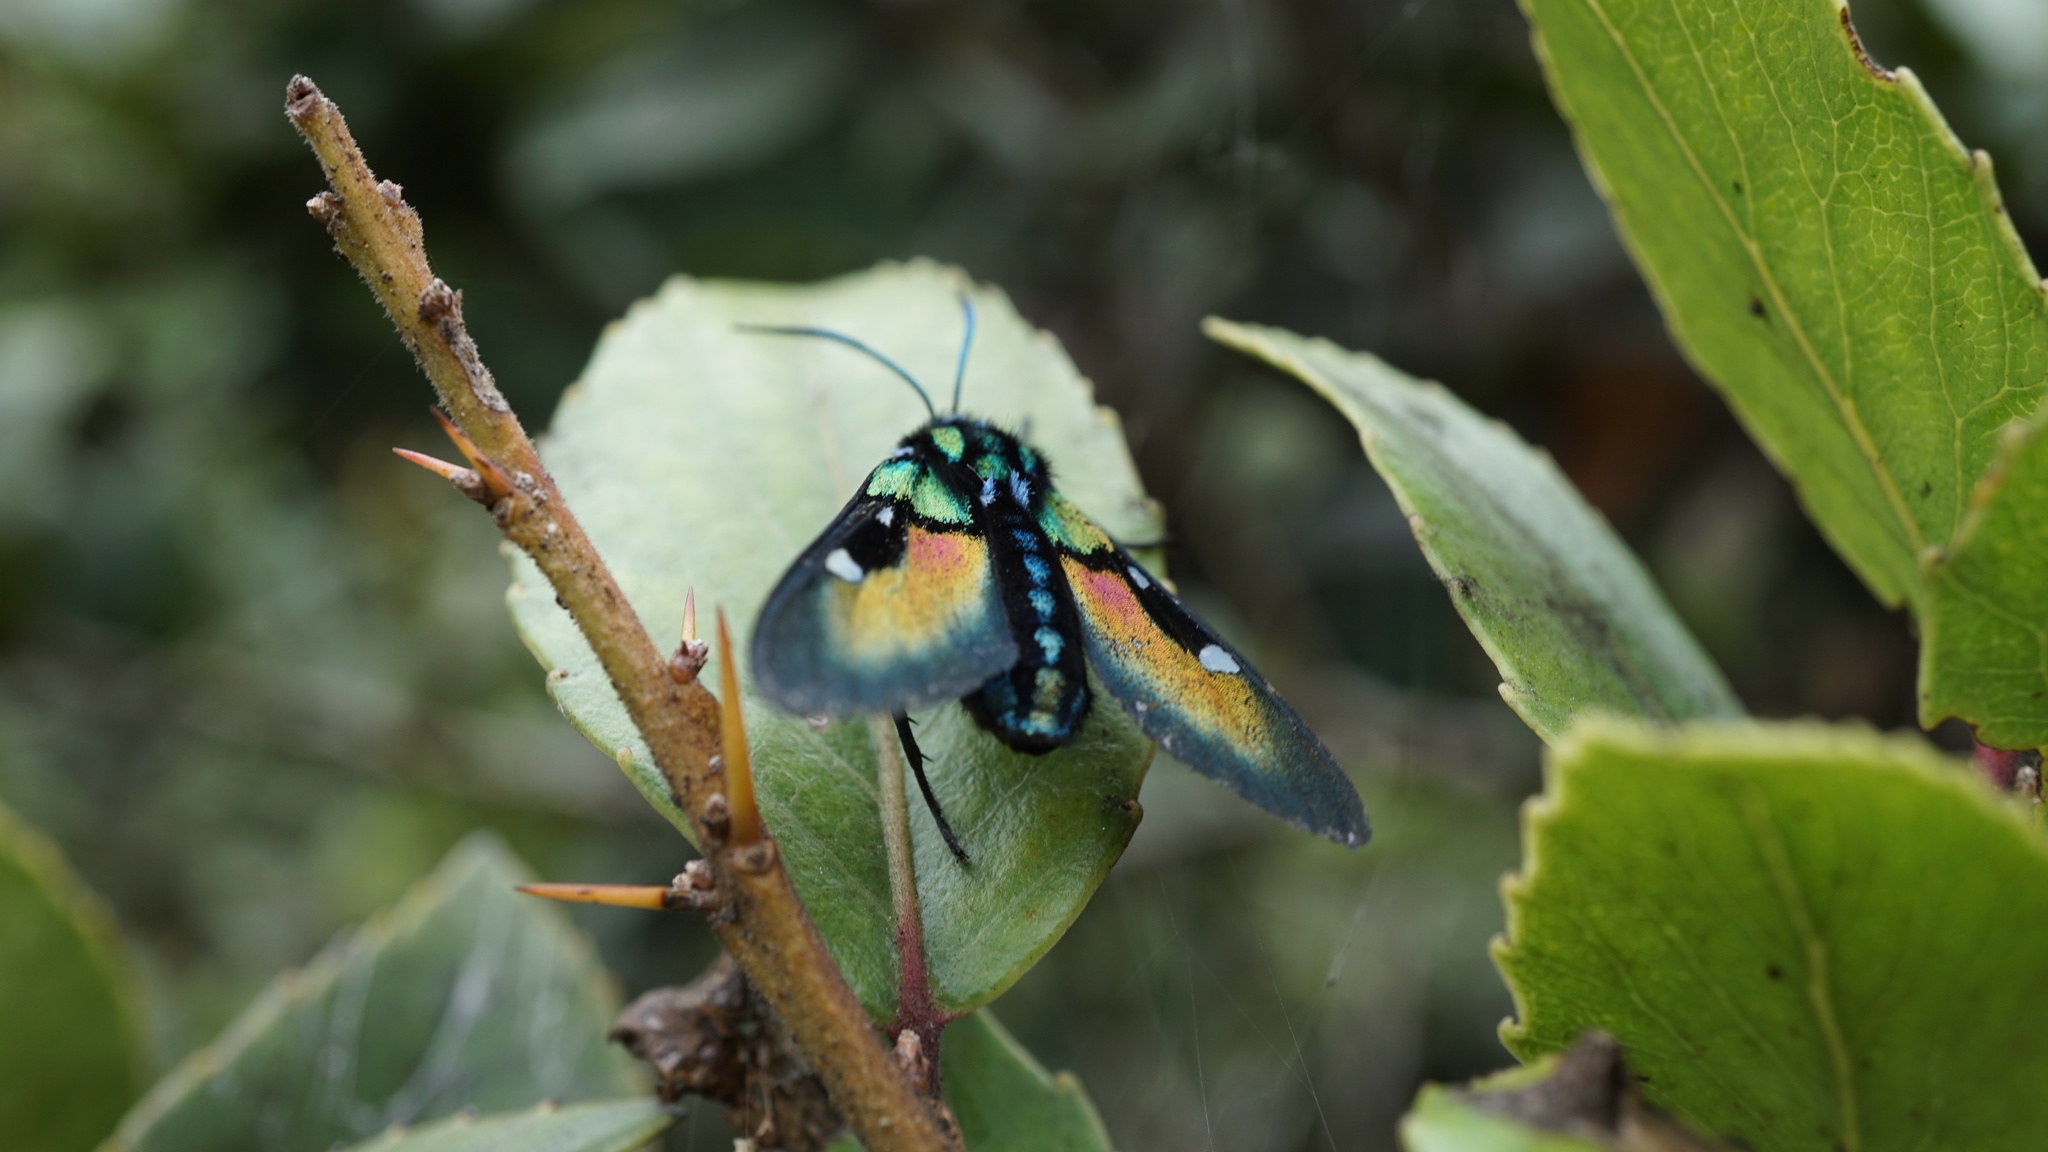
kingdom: Animalia
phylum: Arthropoda
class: Insecta
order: Lepidoptera
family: Erebidae
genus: Chrysocale
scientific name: Chrysocale ignita
